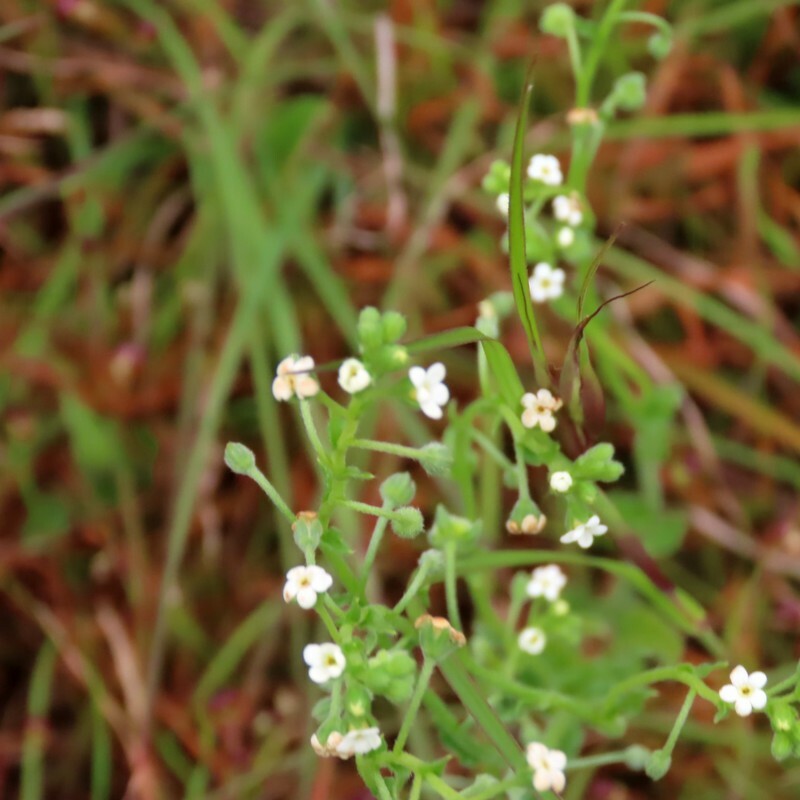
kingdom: Plantae
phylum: Tracheophyta
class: Magnoliopsida
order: Boraginales
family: Boraginaceae
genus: Hackelia
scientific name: Hackelia suaveolens
